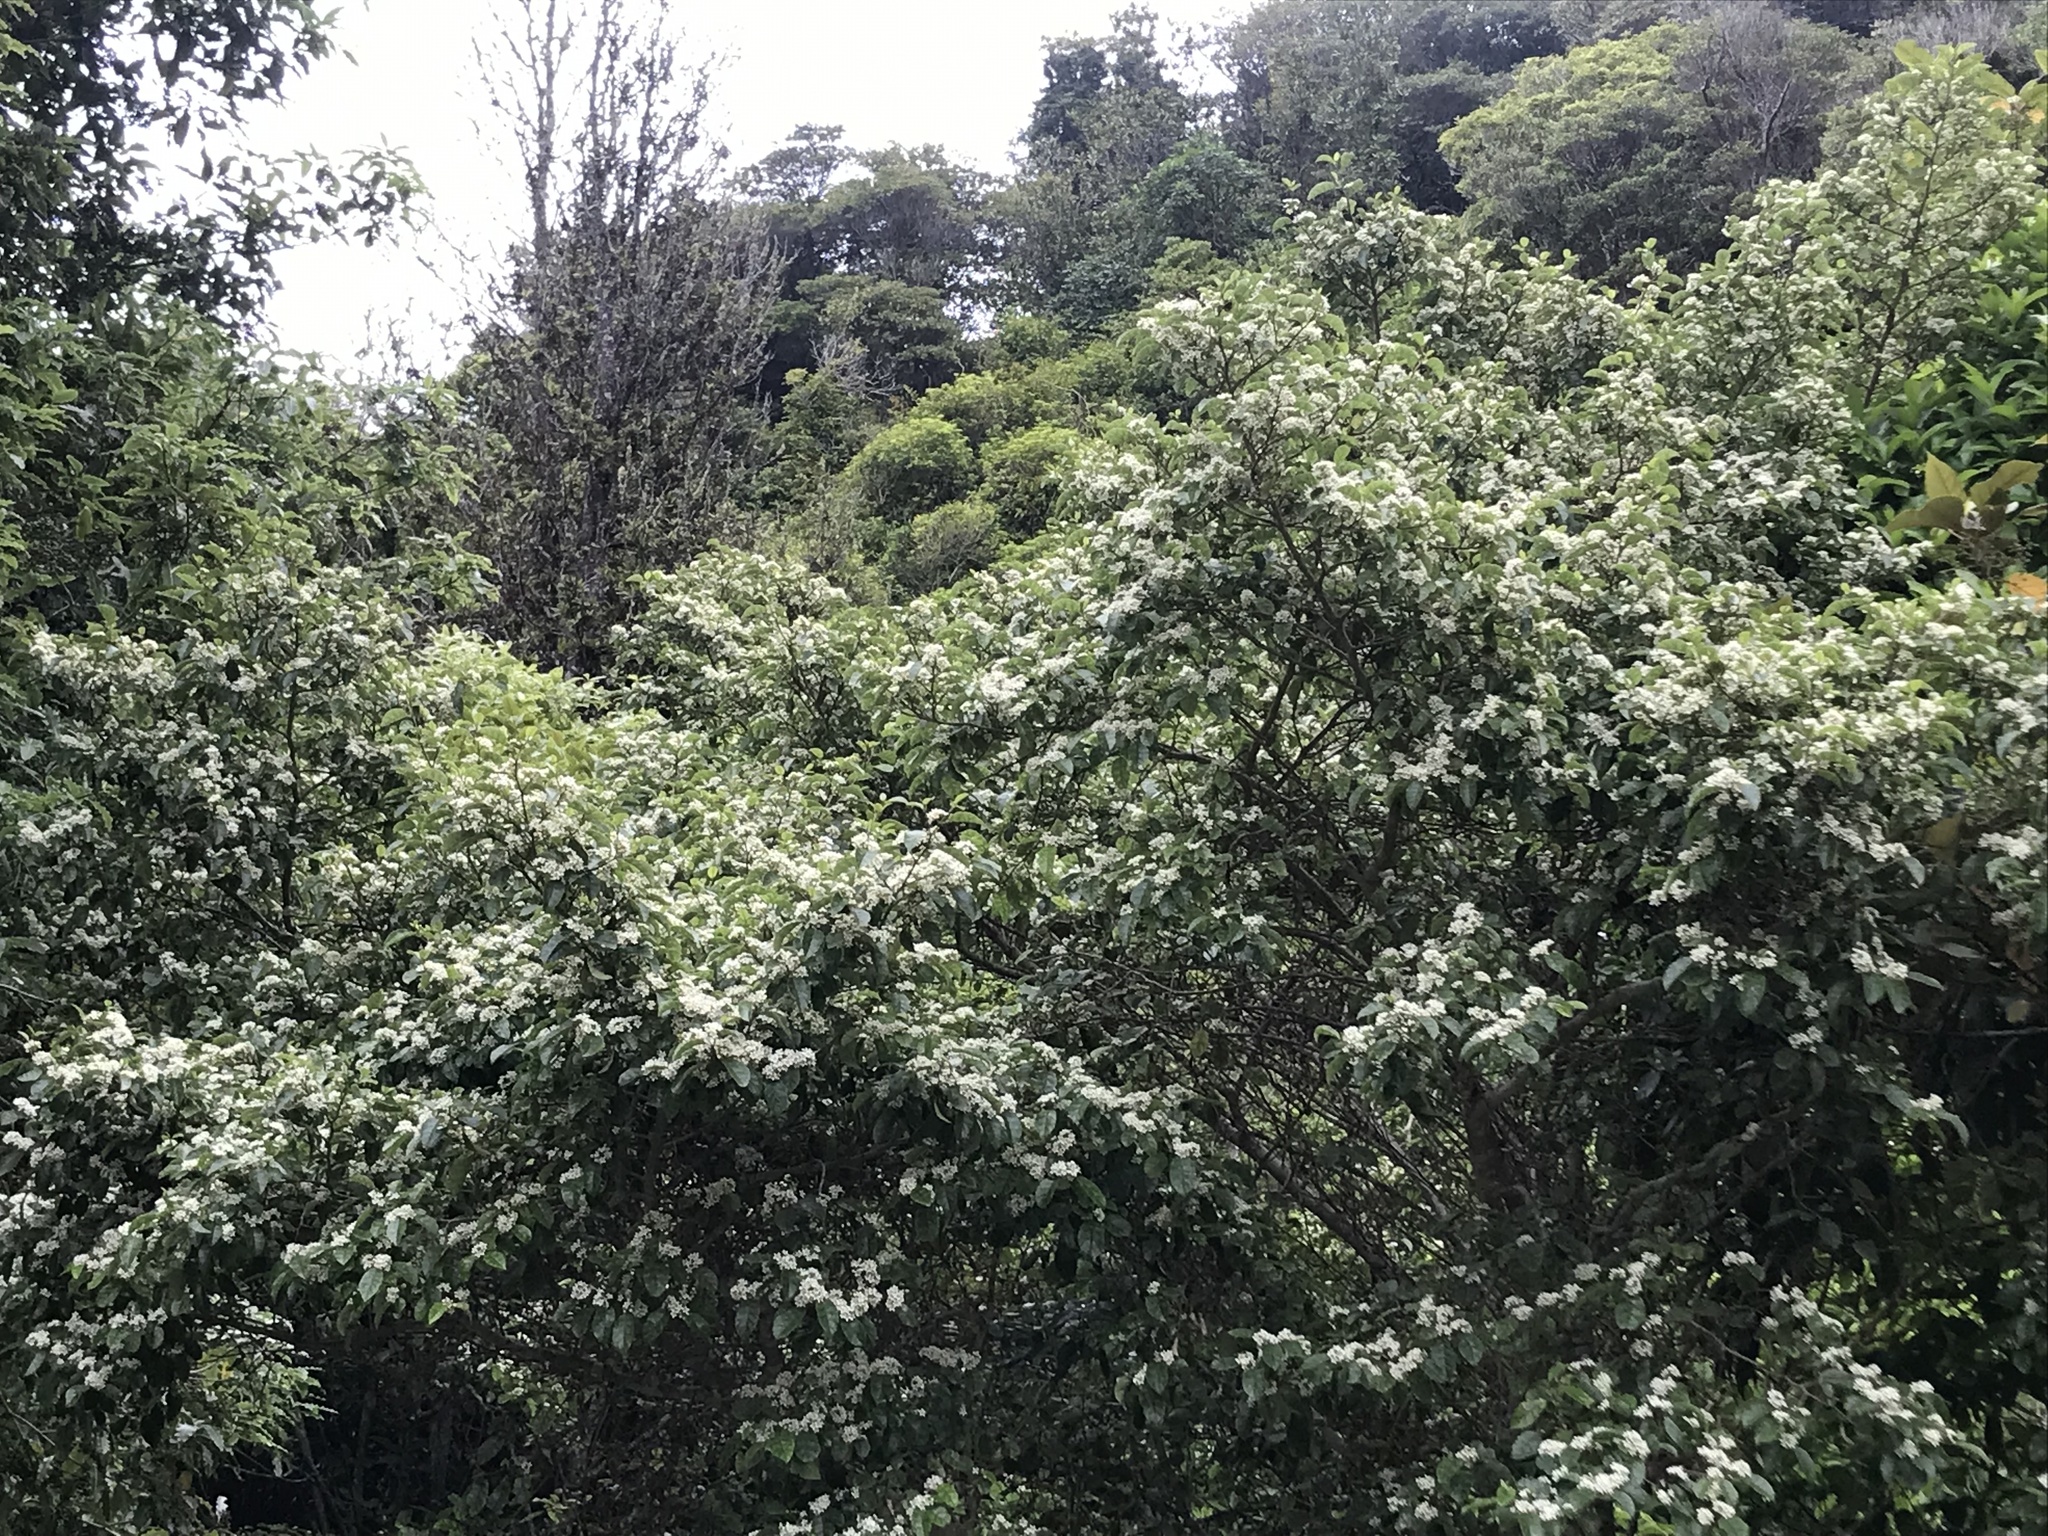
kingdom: Plantae
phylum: Tracheophyta
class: Magnoliopsida
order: Asterales
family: Rousseaceae
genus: Carpodetus
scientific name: Carpodetus serratus
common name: White mapau
